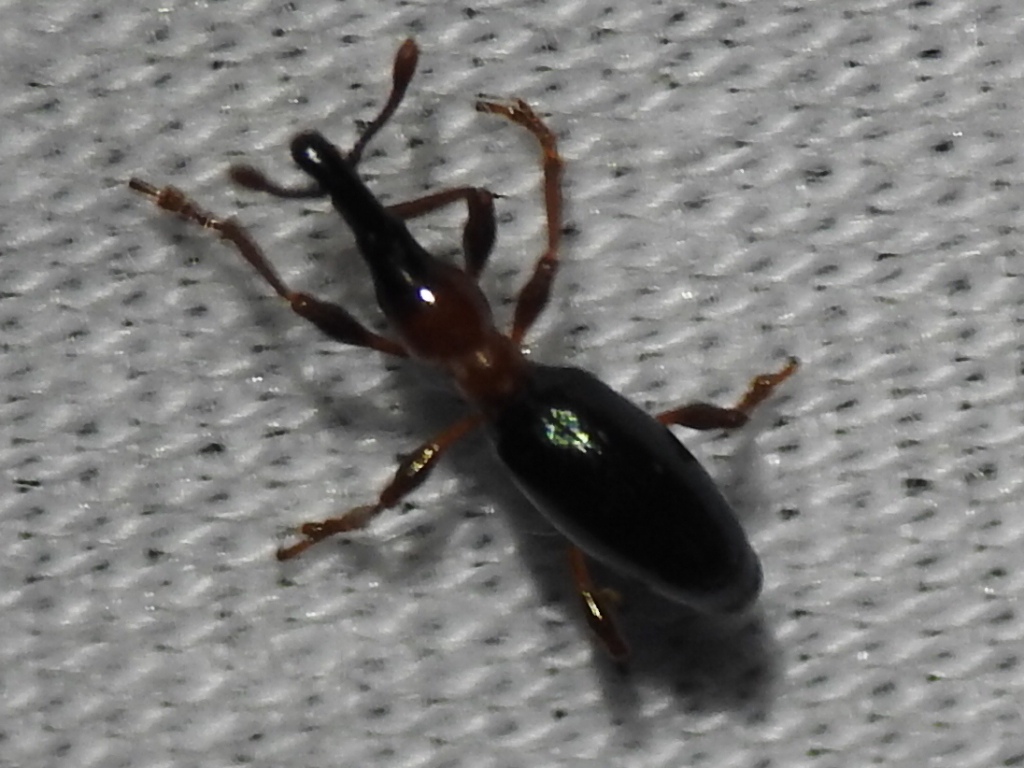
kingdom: Animalia
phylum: Arthropoda
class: Insecta
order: Coleoptera
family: Brentidae
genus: Cylas
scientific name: Cylas formicarius
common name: Sweetpotato weevil
